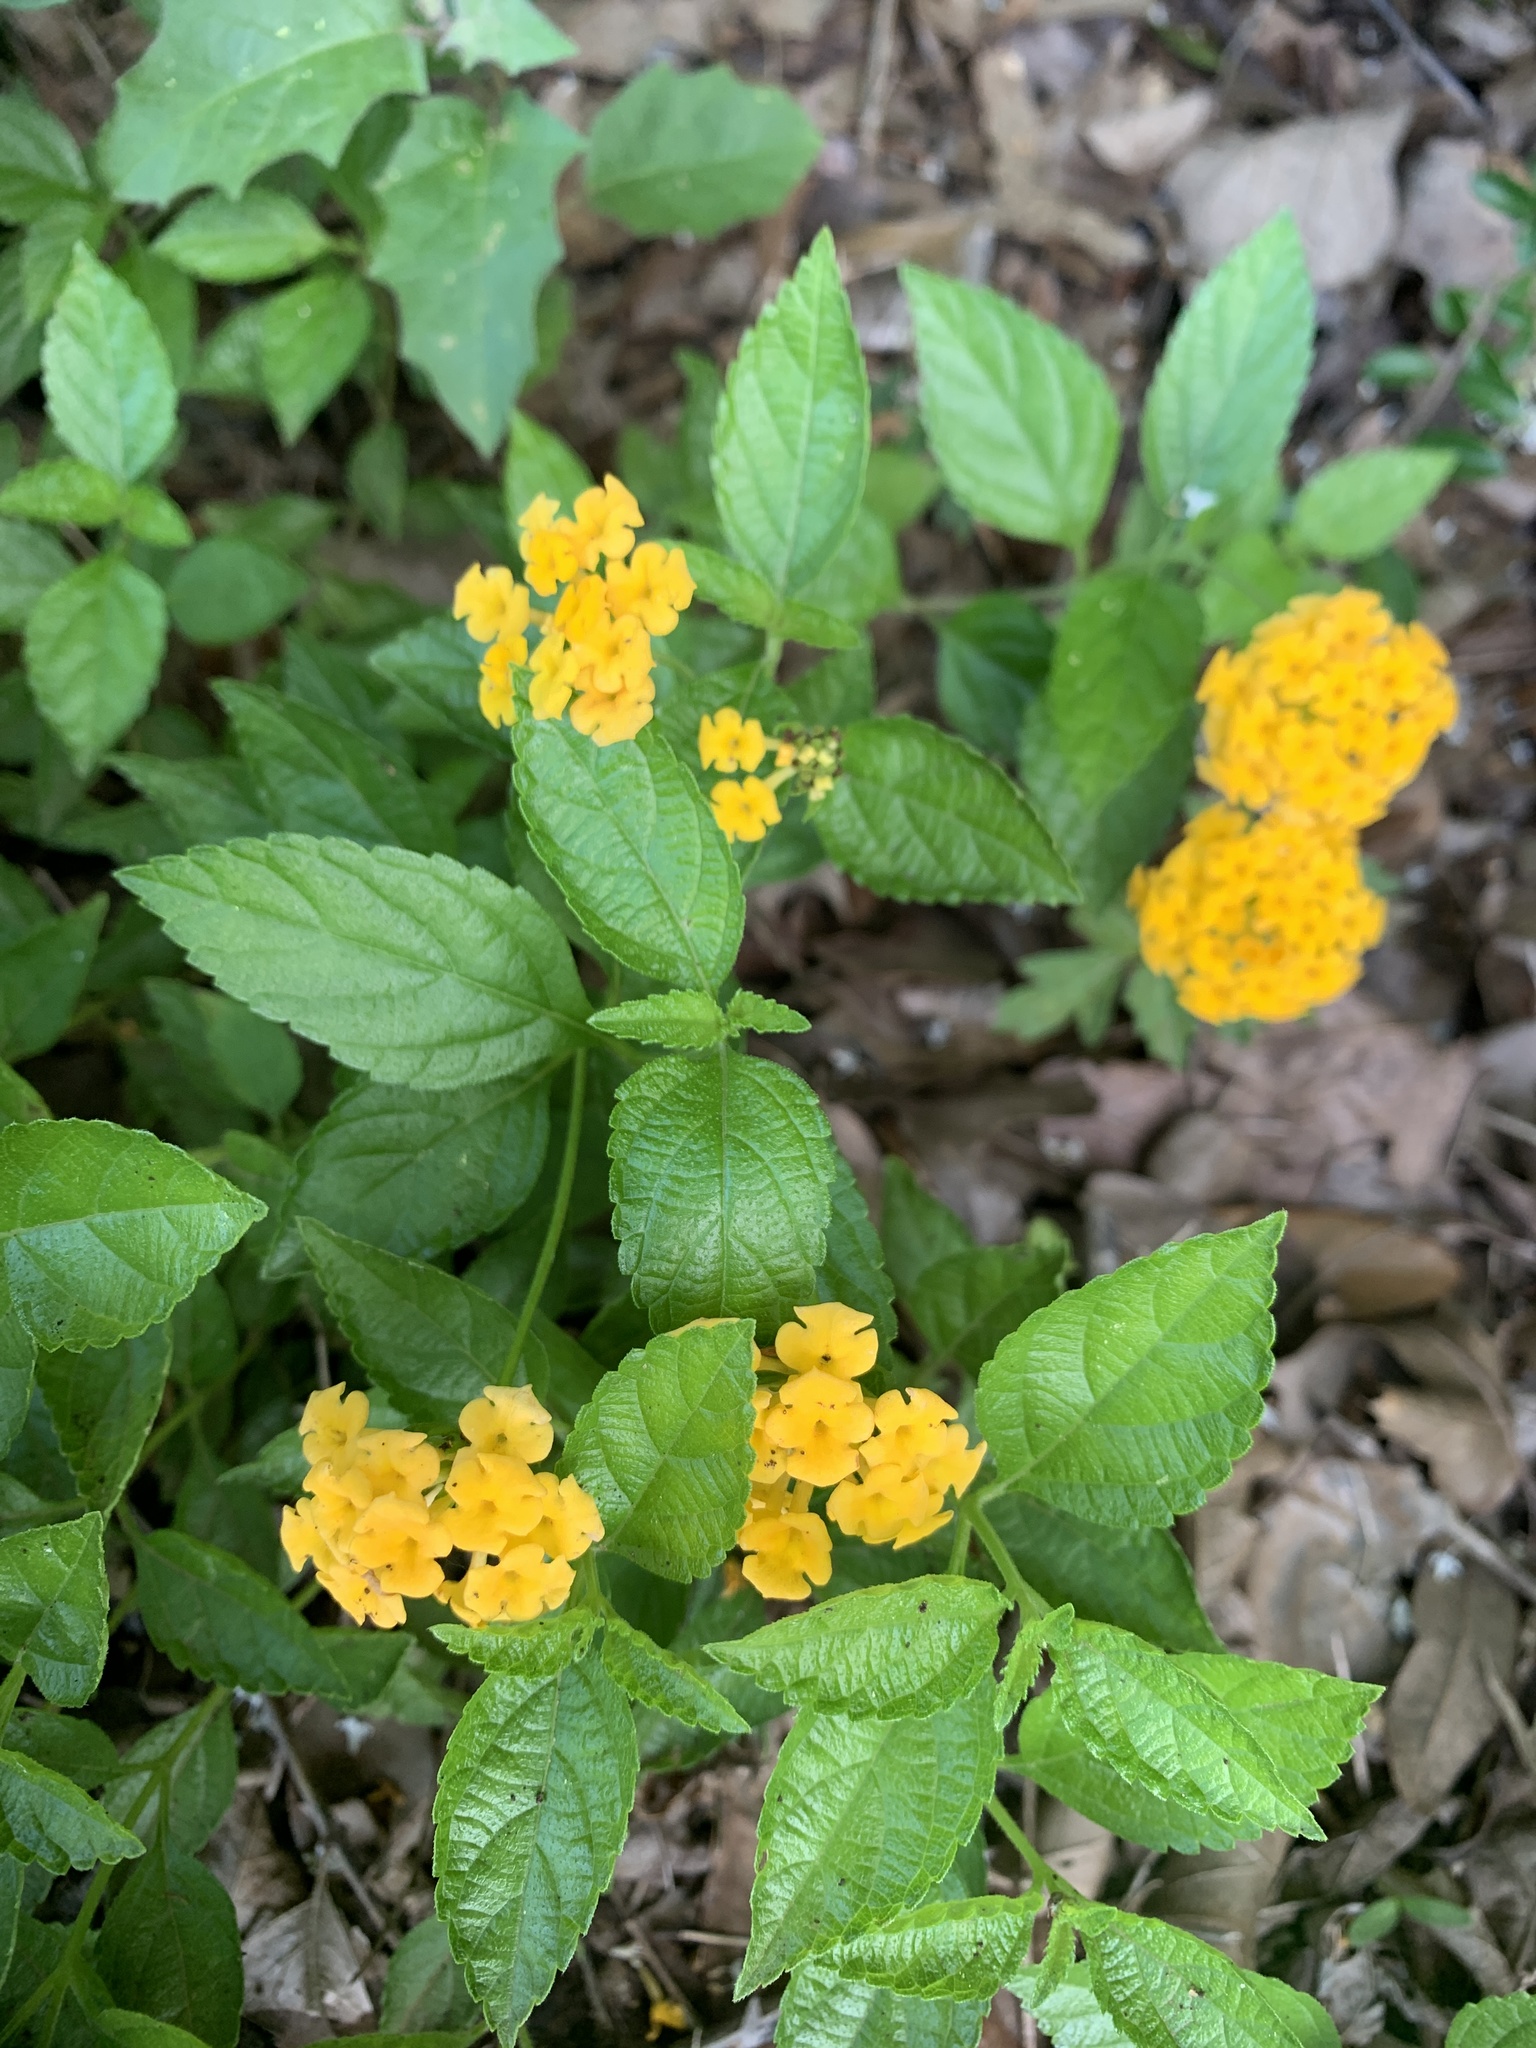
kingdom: Plantae
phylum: Tracheophyta
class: Magnoliopsida
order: Lamiales
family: Verbenaceae
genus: Lantana
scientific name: Lantana polyacantha
